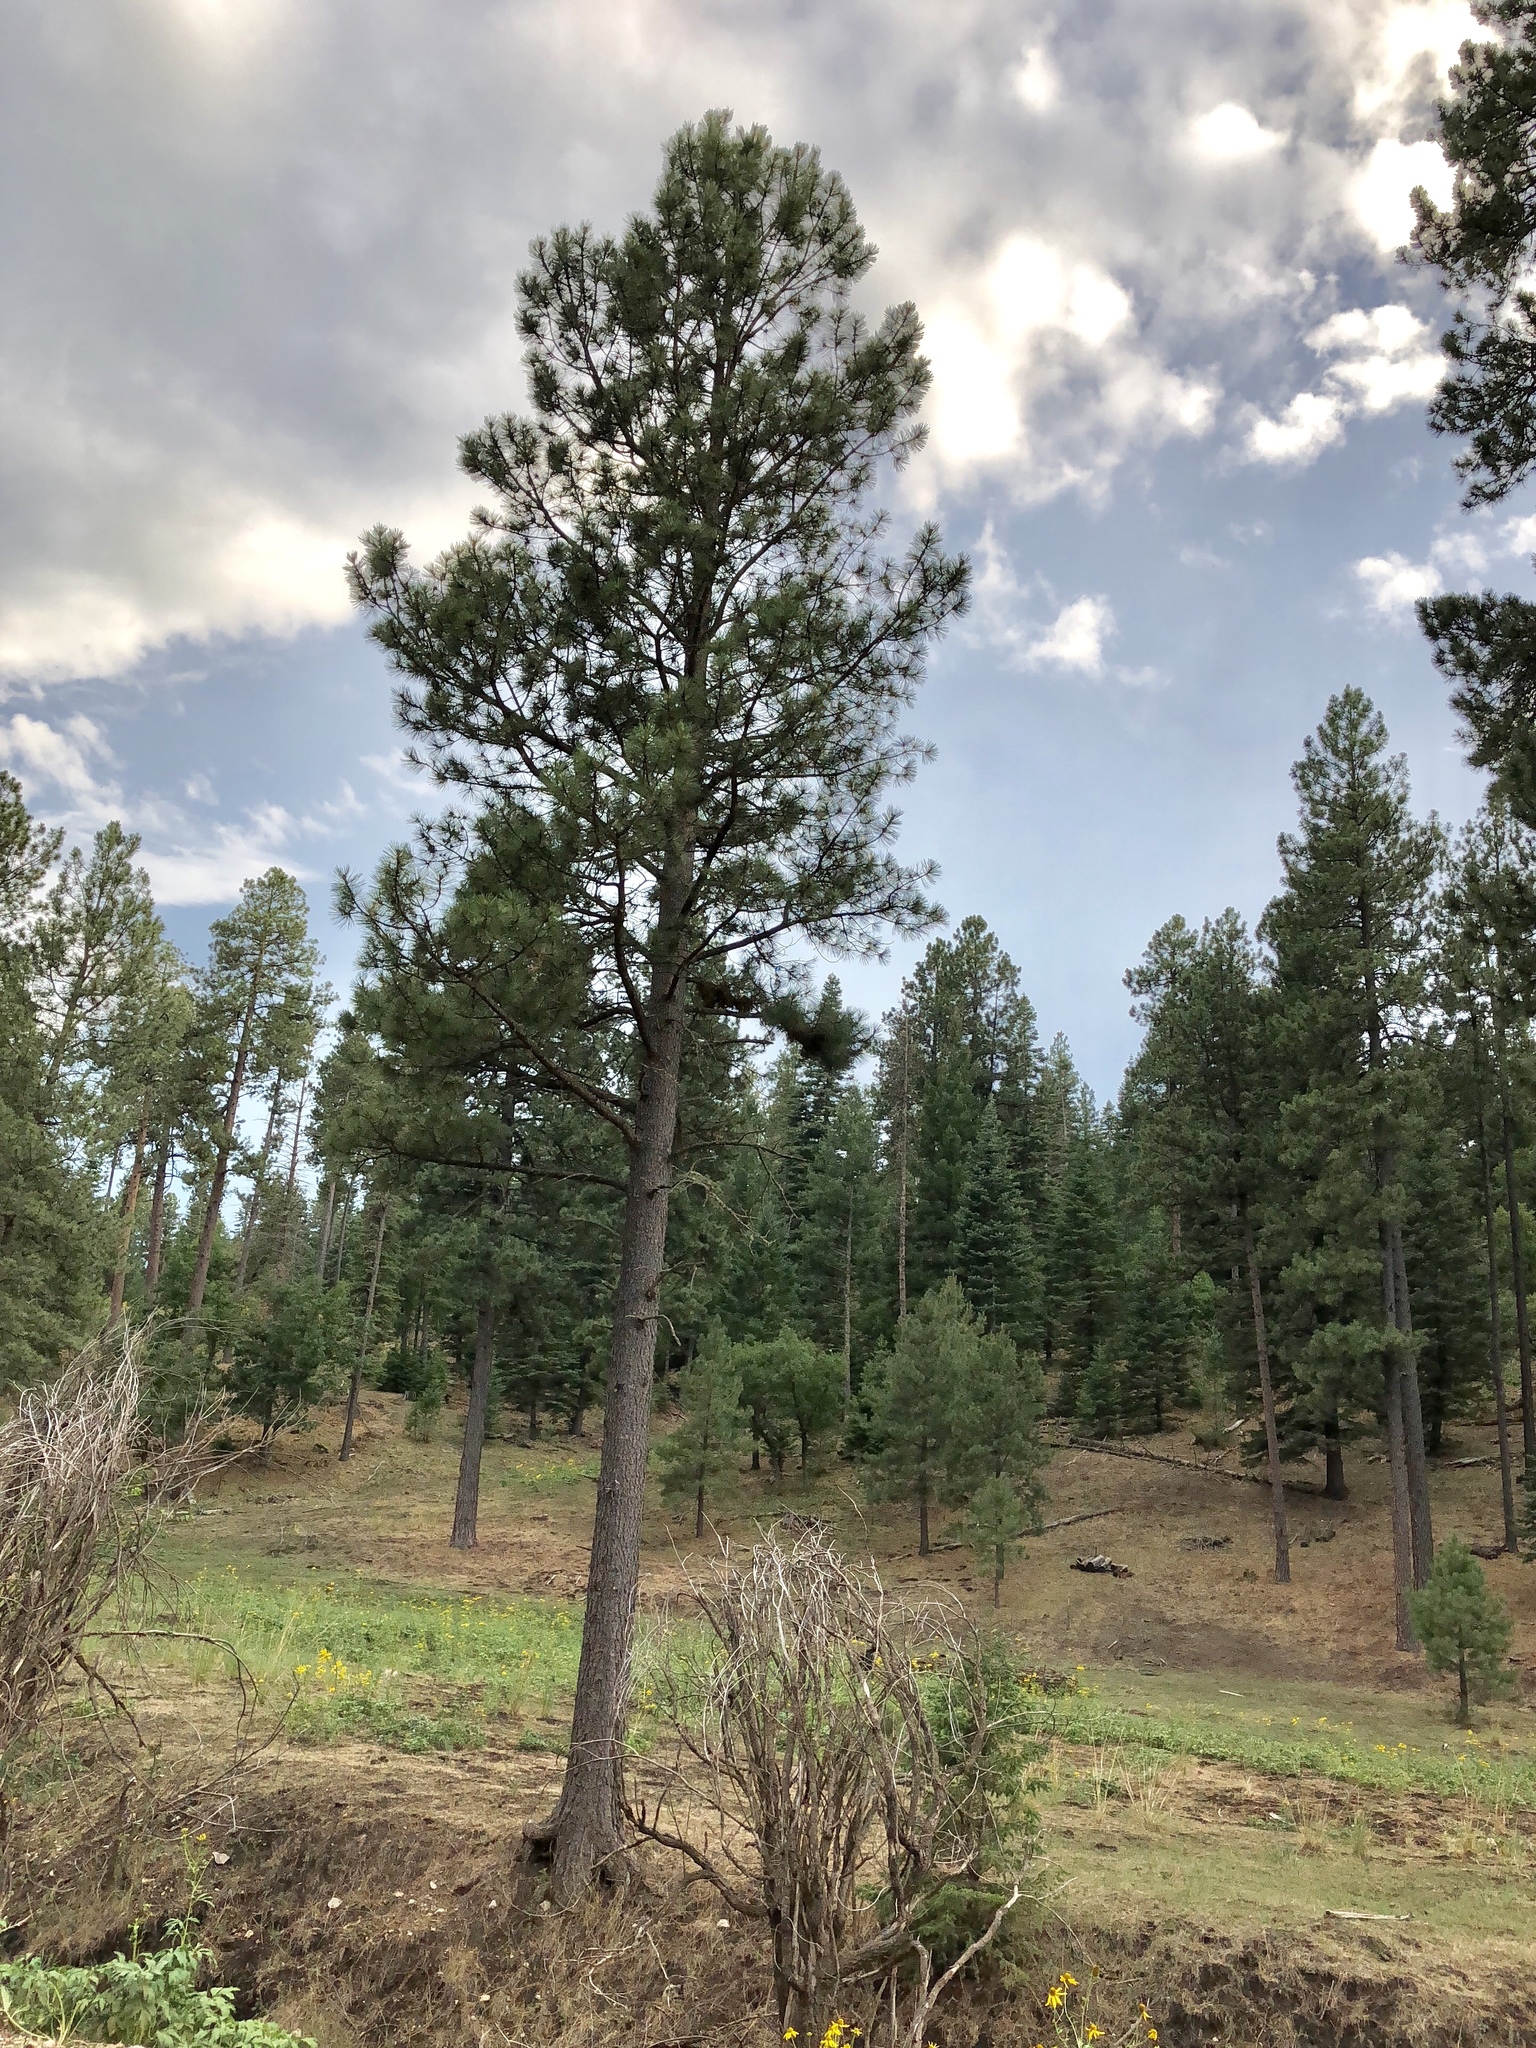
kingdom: Plantae
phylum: Tracheophyta
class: Pinopsida
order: Pinales
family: Pinaceae
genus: Pinus
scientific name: Pinus ponderosa
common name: Western yellow-pine
